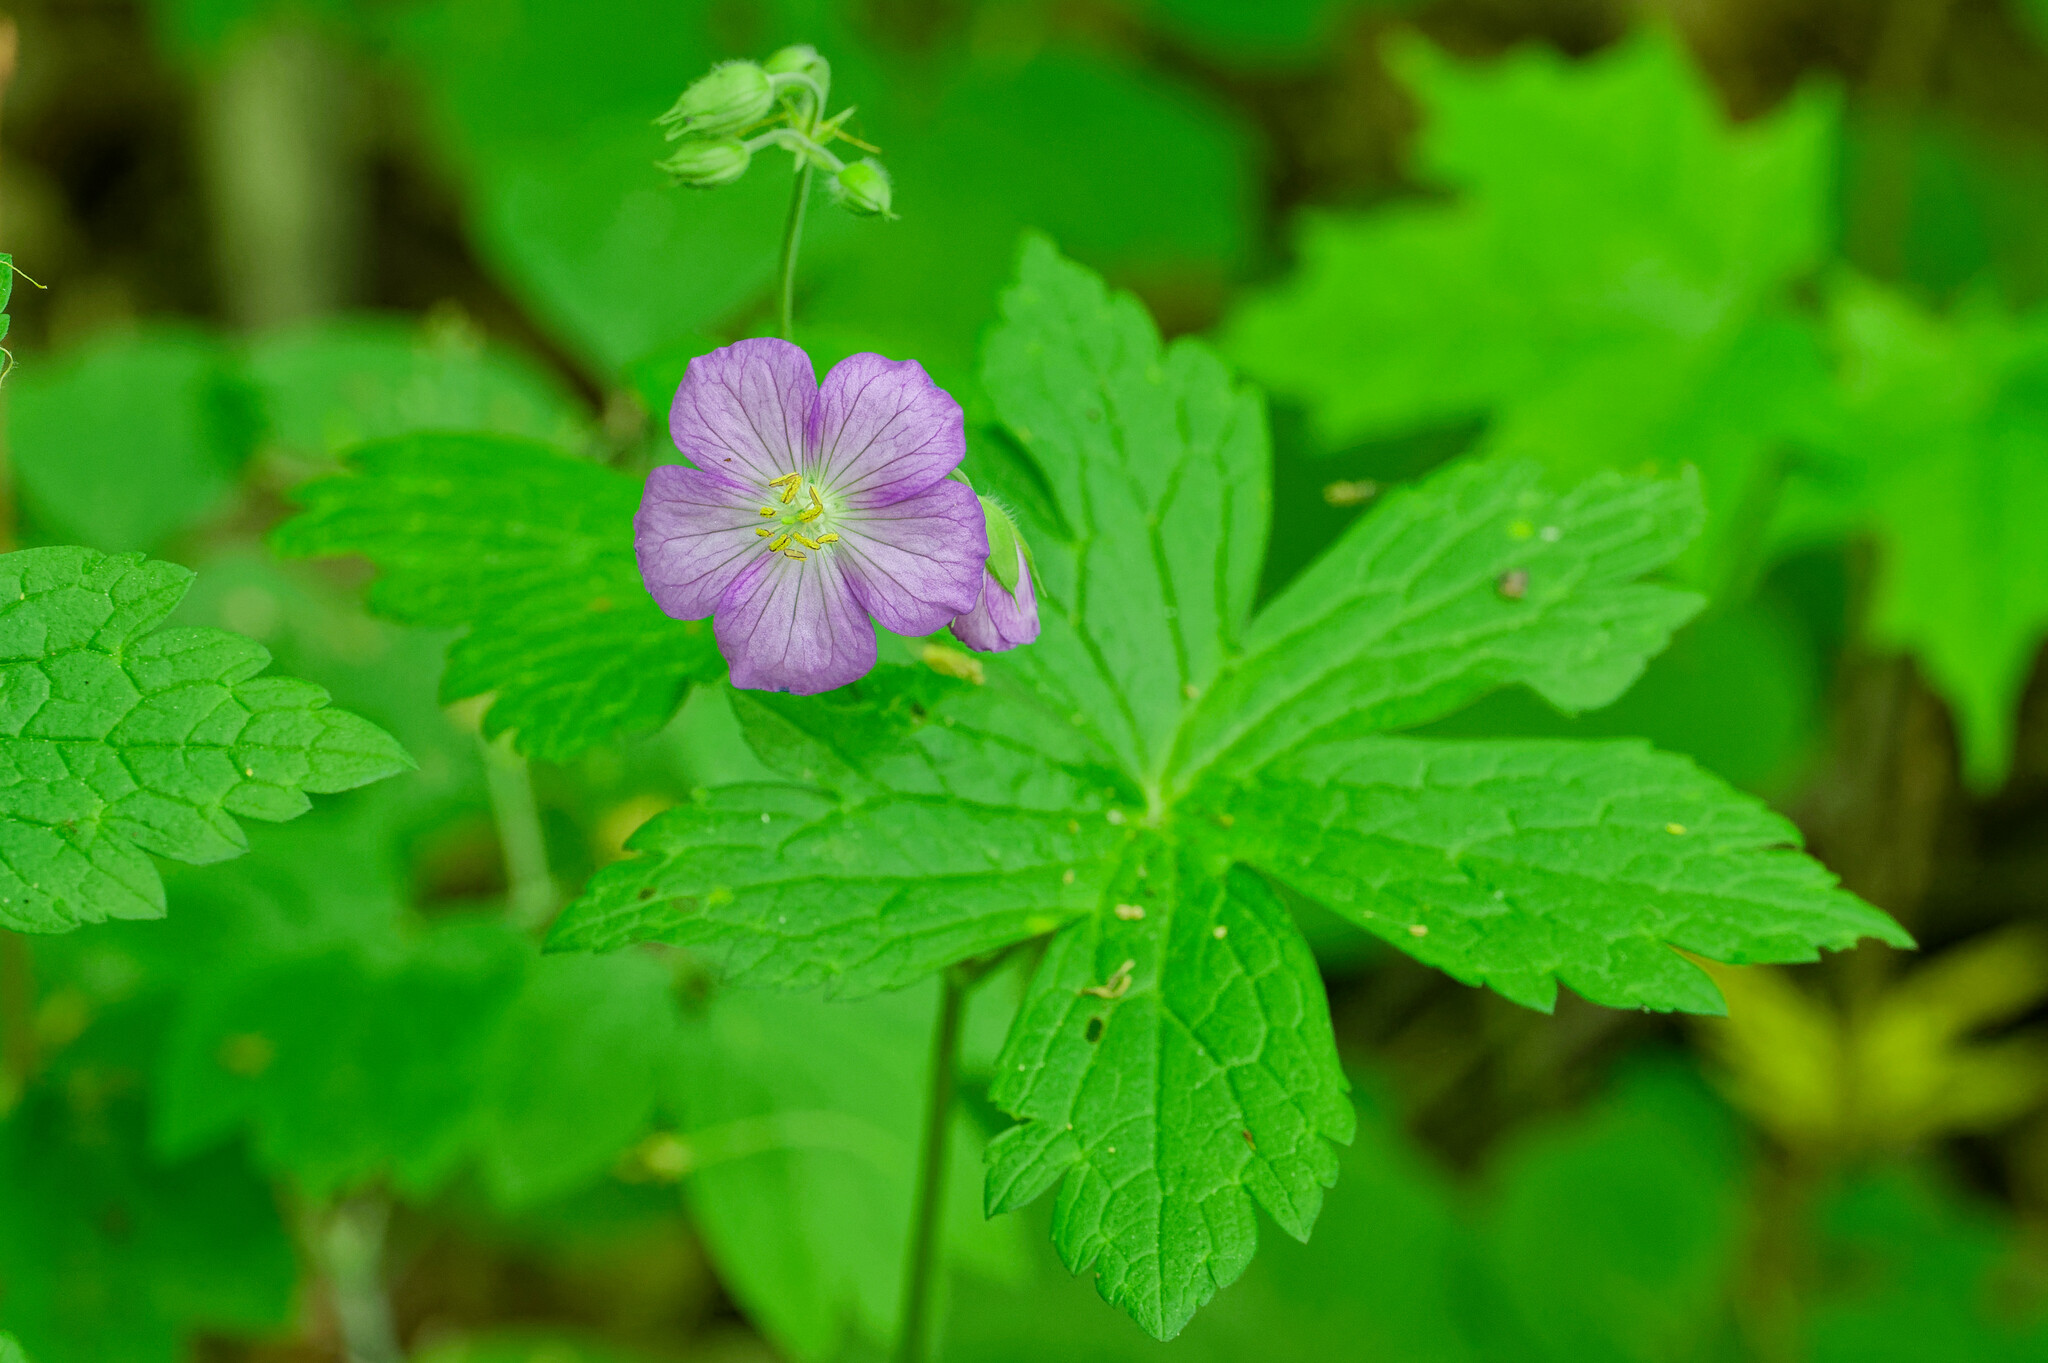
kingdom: Plantae
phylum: Tracheophyta
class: Magnoliopsida
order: Geraniales
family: Geraniaceae
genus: Geranium
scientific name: Geranium maculatum
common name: Spotted geranium
